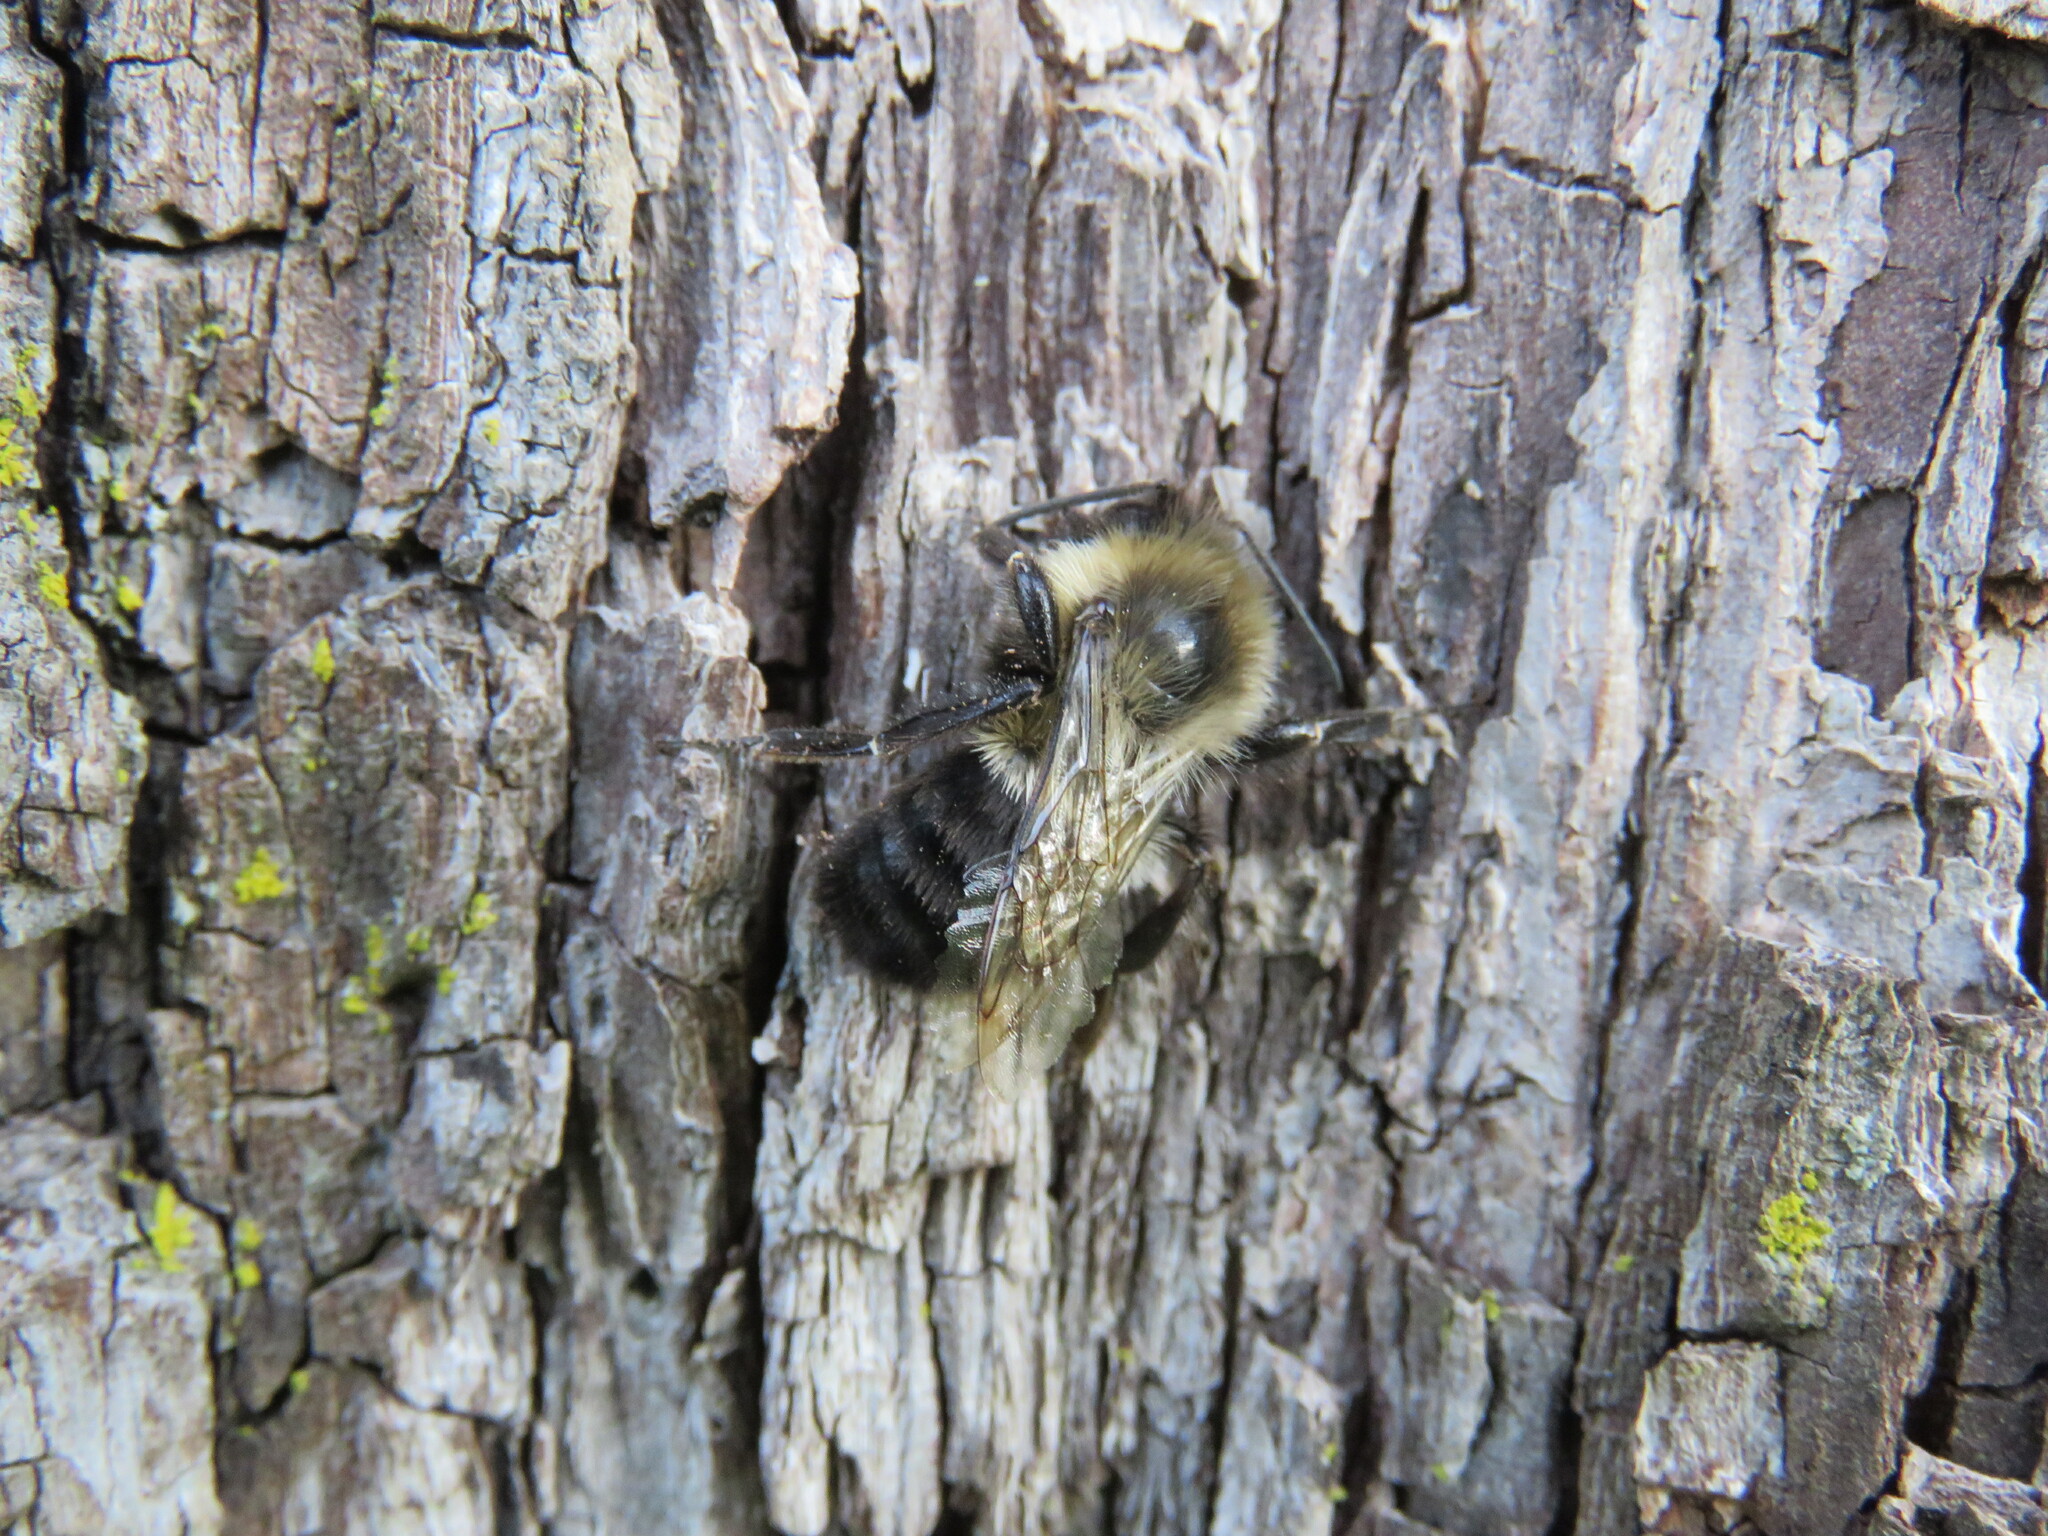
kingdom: Animalia
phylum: Arthropoda
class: Insecta
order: Hymenoptera
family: Apidae
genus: Bombus
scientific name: Bombus impatiens
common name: Common eastern bumble bee
